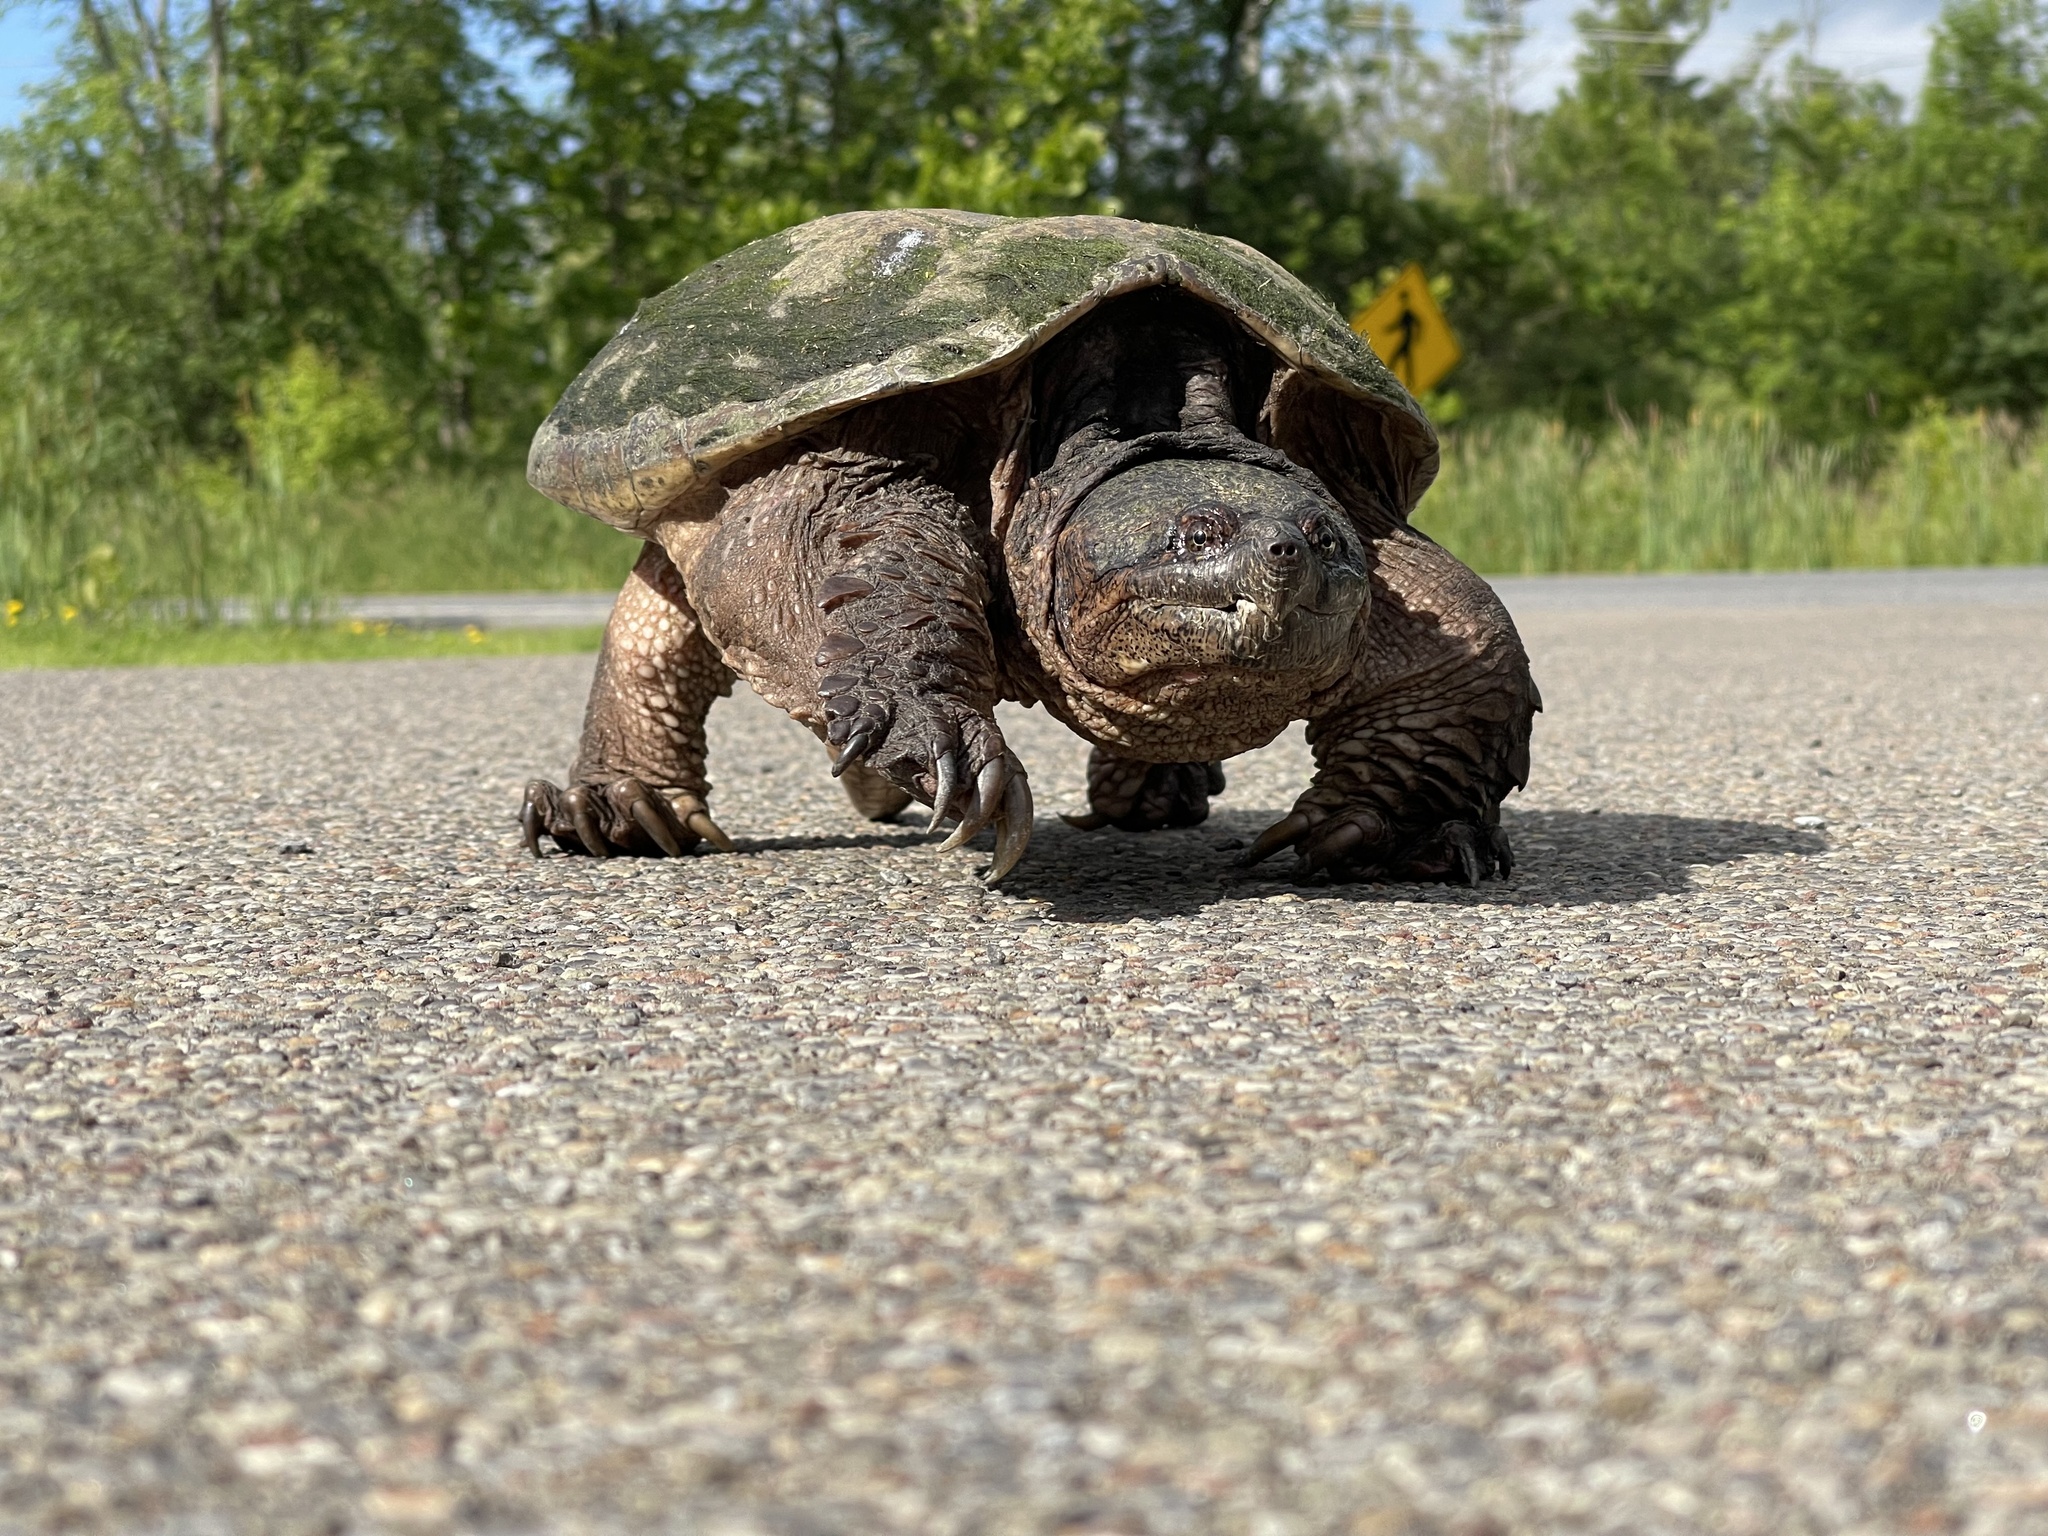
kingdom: Animalia
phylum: Chordata
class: Testudines
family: Chelydridae
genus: Chelydra
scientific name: Chelydra serpentina
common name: Common snapping turtle
